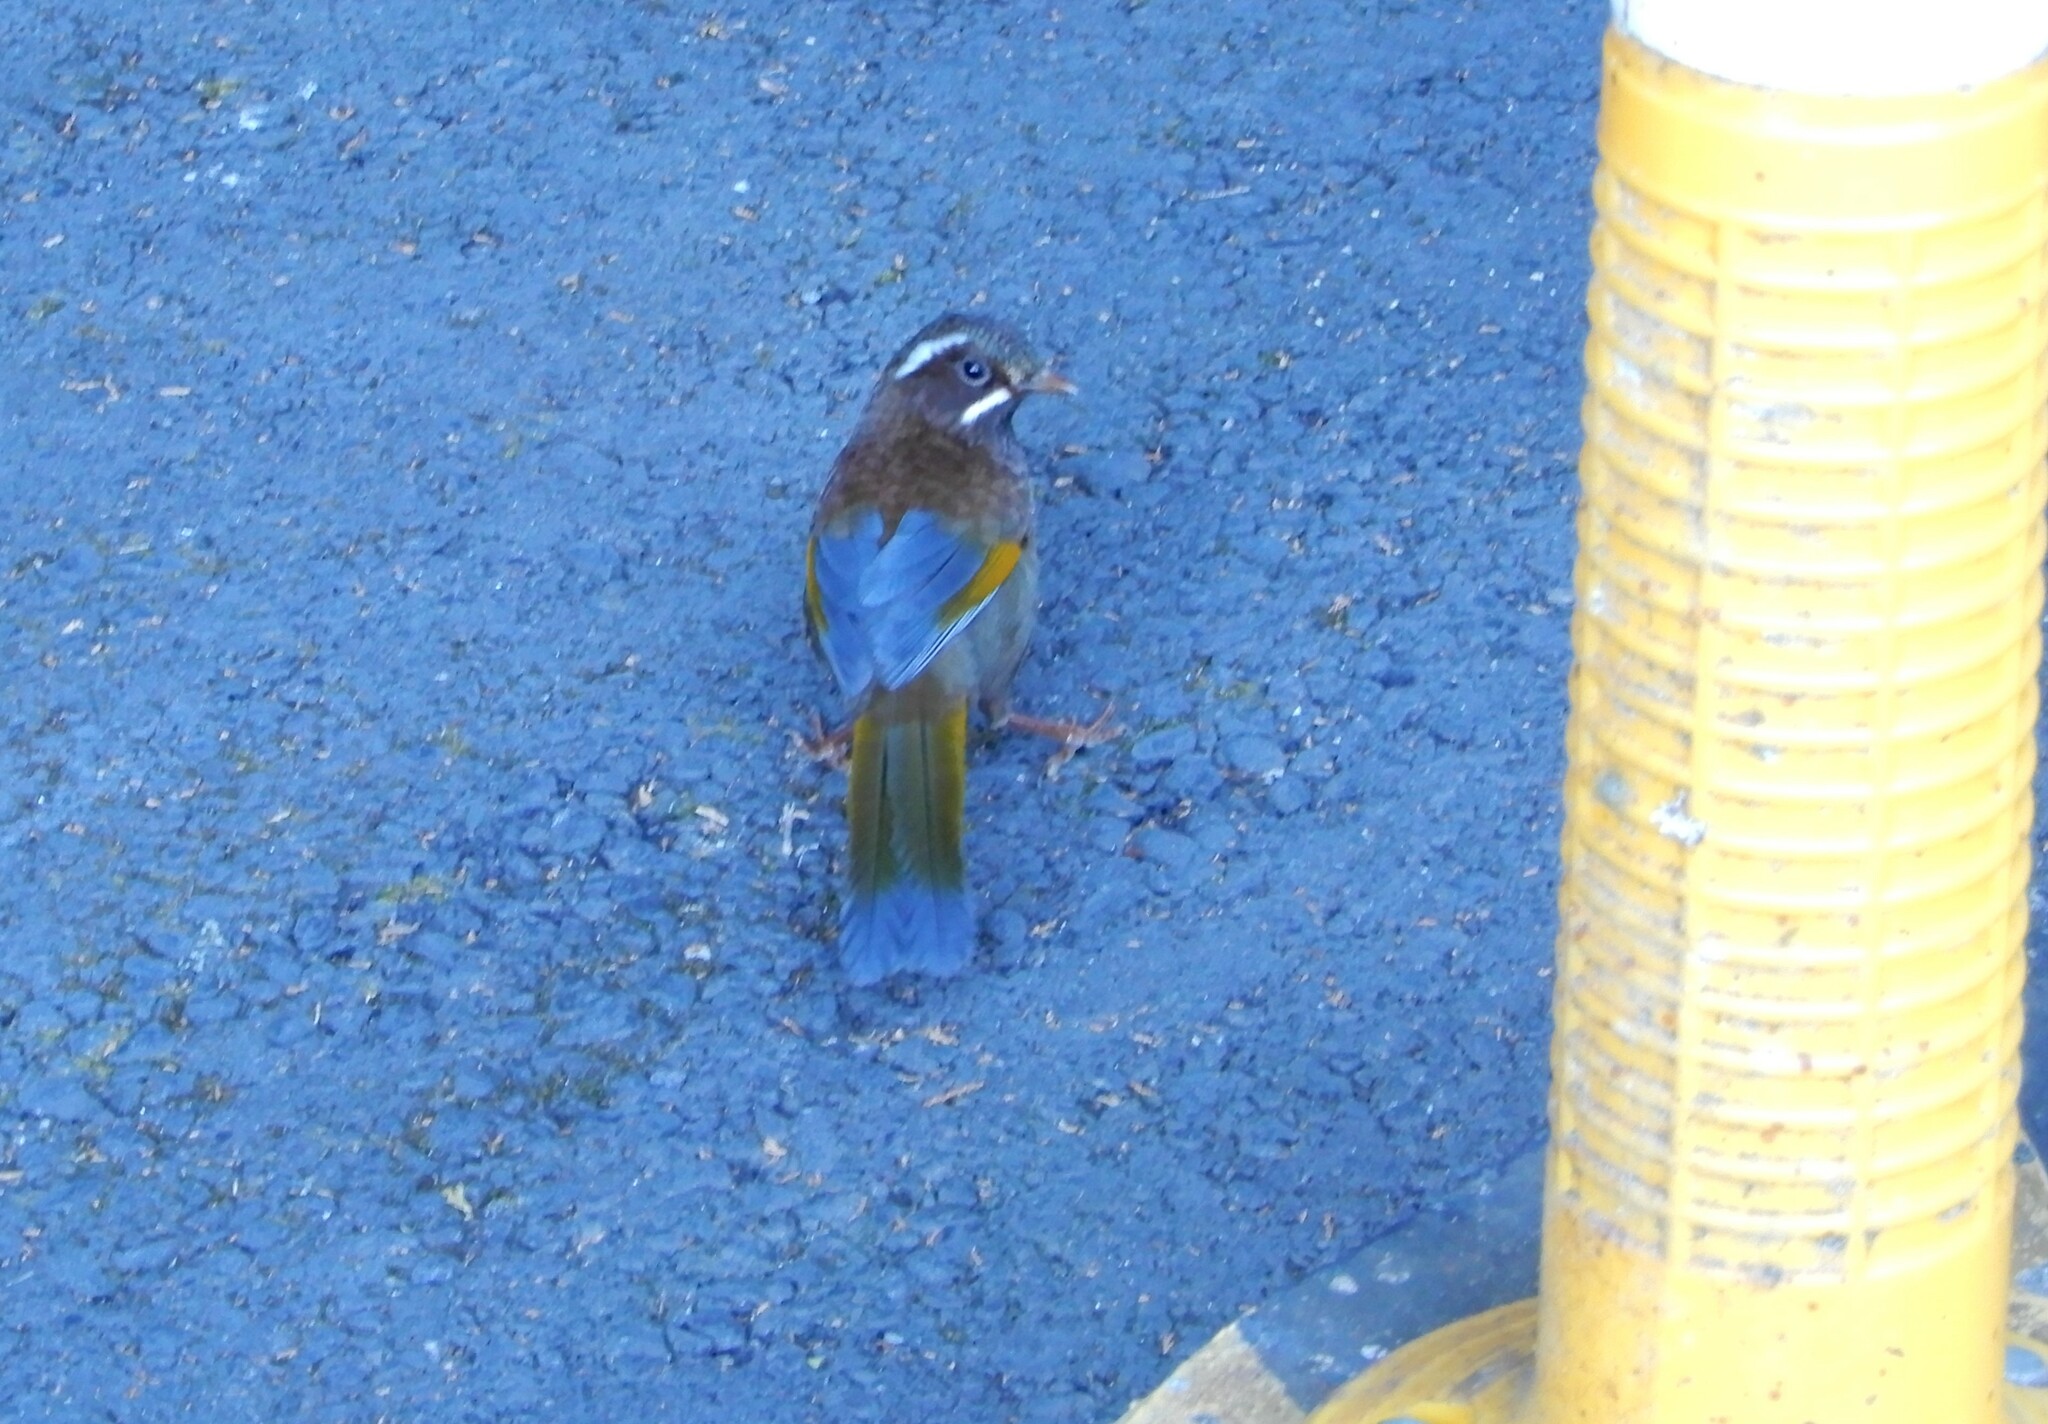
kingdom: Animalia
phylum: Chordata
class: Aves
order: Passeriformes
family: Leiothrichidae
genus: Trochalopteron
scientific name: Trochalopteron morrisonianum
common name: White-whiskered laughingthrush
